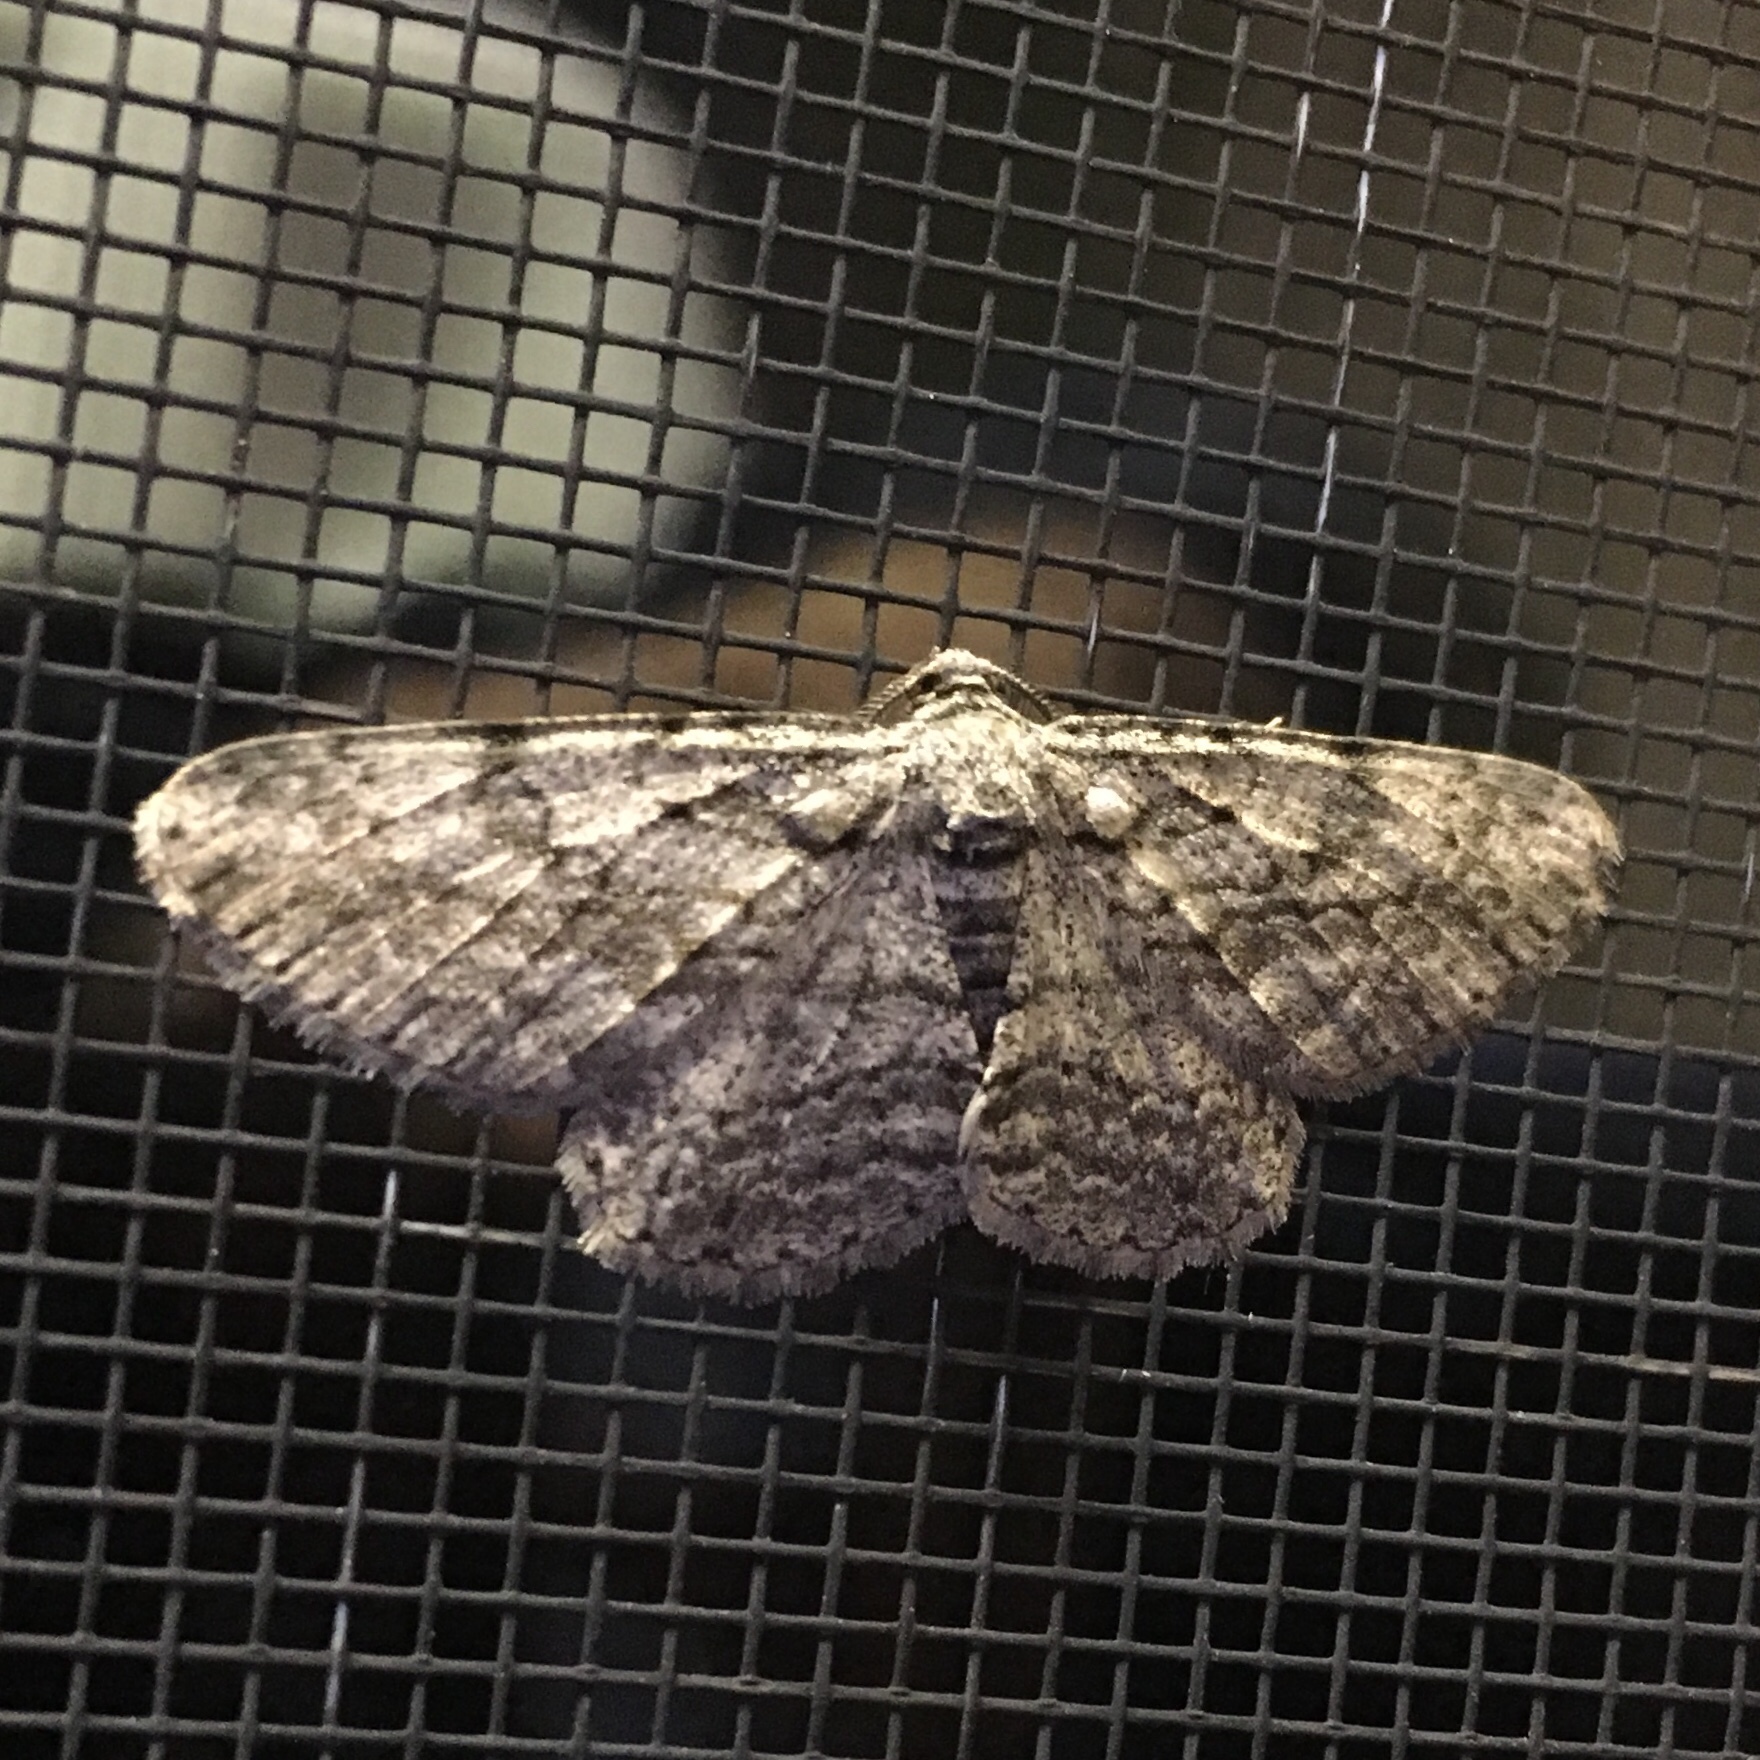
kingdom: Animalia
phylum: Arthropoda
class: Insecta
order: Lepidoptera
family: Geometridae
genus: Anavitrinella
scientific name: Anavitrinella pampinaria
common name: Common gray
